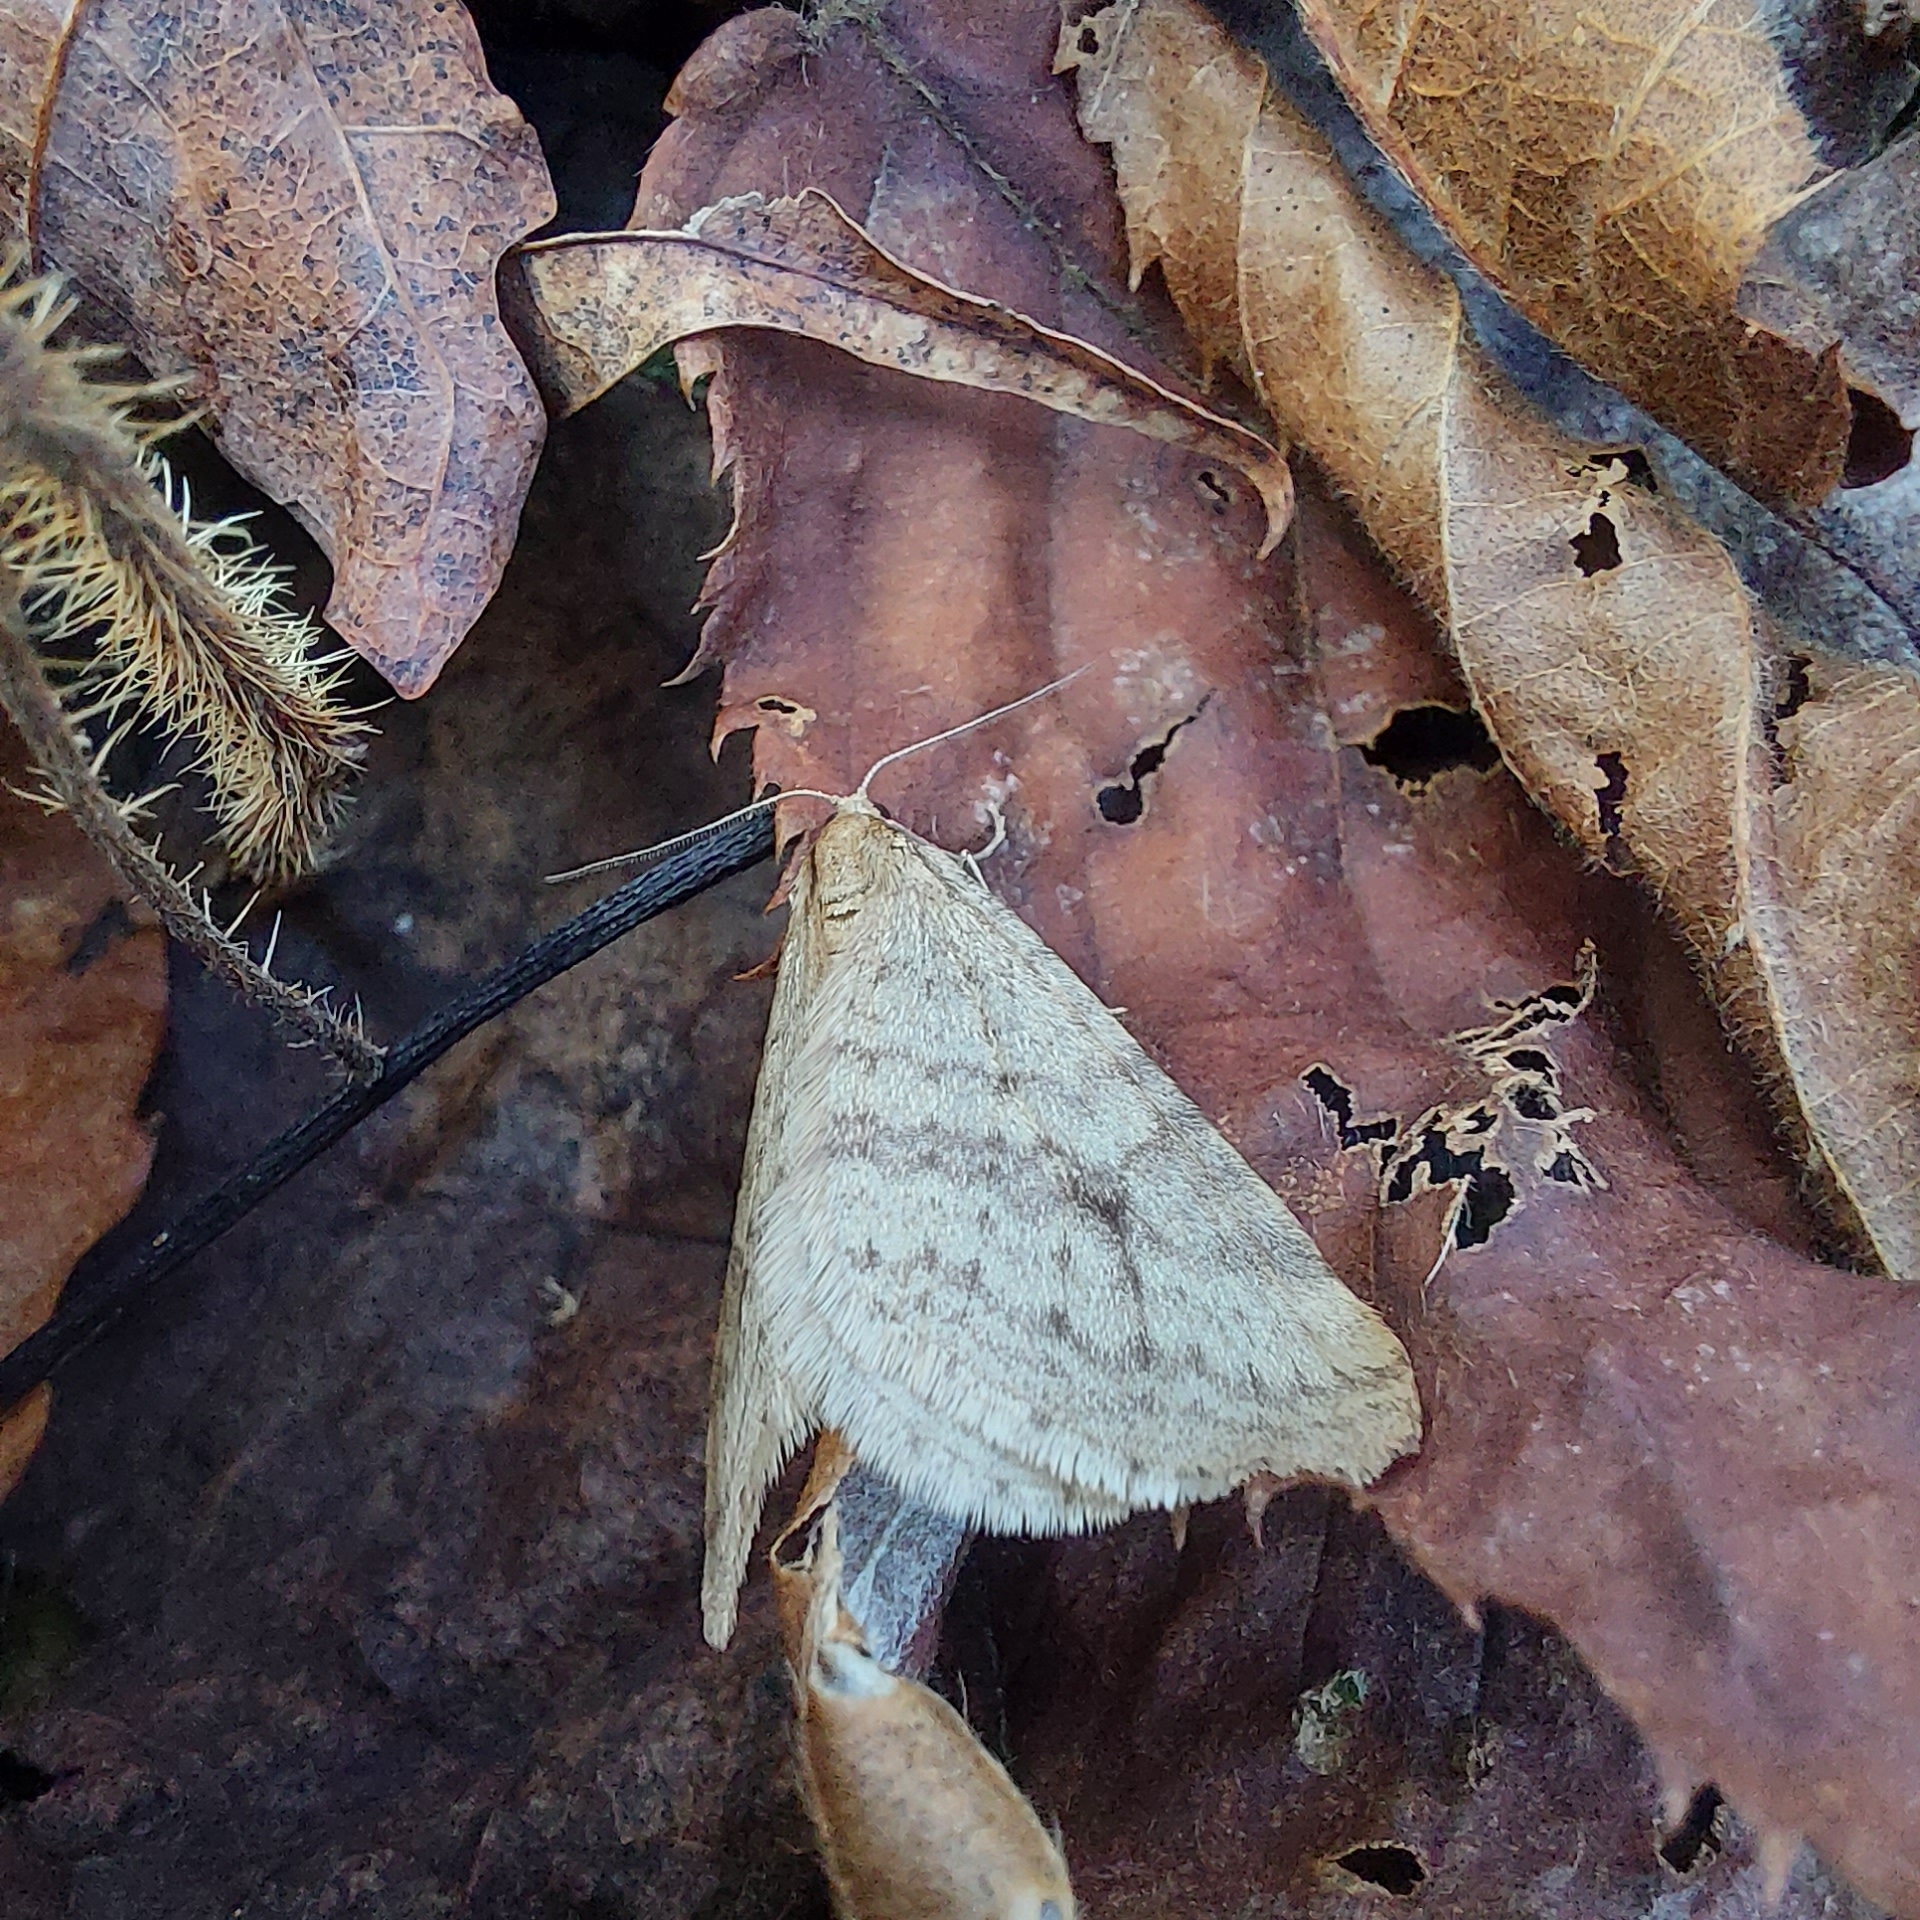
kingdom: Animalia
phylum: Arthropoda
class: Insecta
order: Lepidoptera
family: Geometridae
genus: Operophtera
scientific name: Operophtera bruceata
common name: Bruce spanworm
